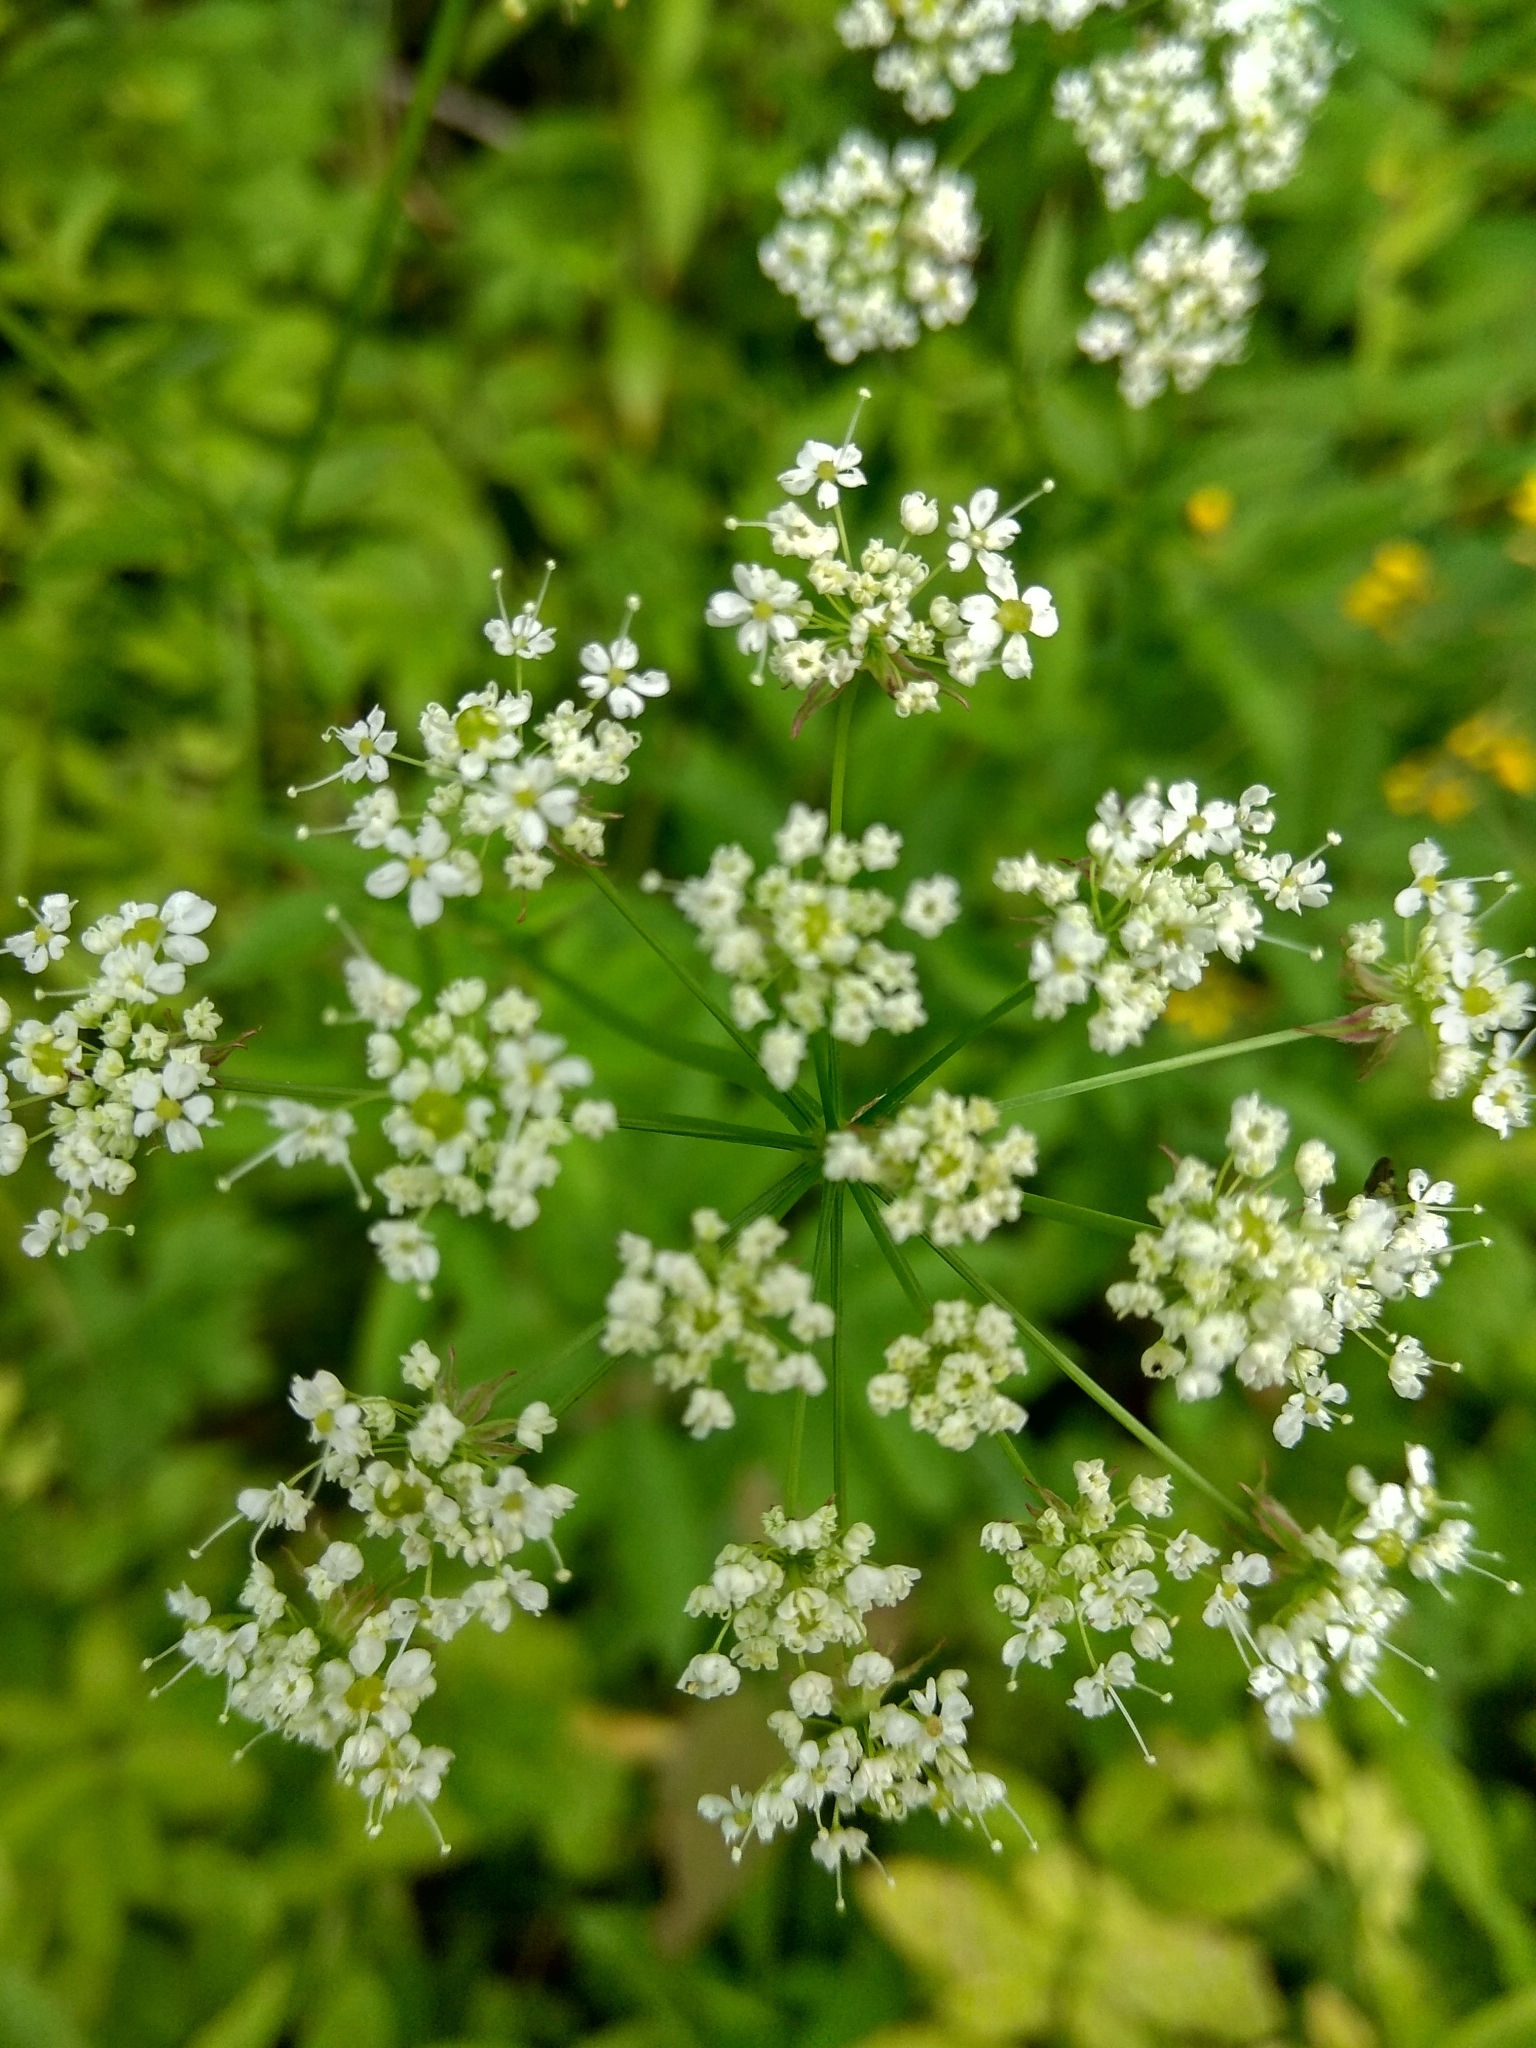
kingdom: Plantae
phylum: Tracheophyta
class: Magnoliopsida
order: Apiales
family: Apiaceae
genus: Chaerophyllum
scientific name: Chaerophyllum aromaticum
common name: Broadleaf chervil
